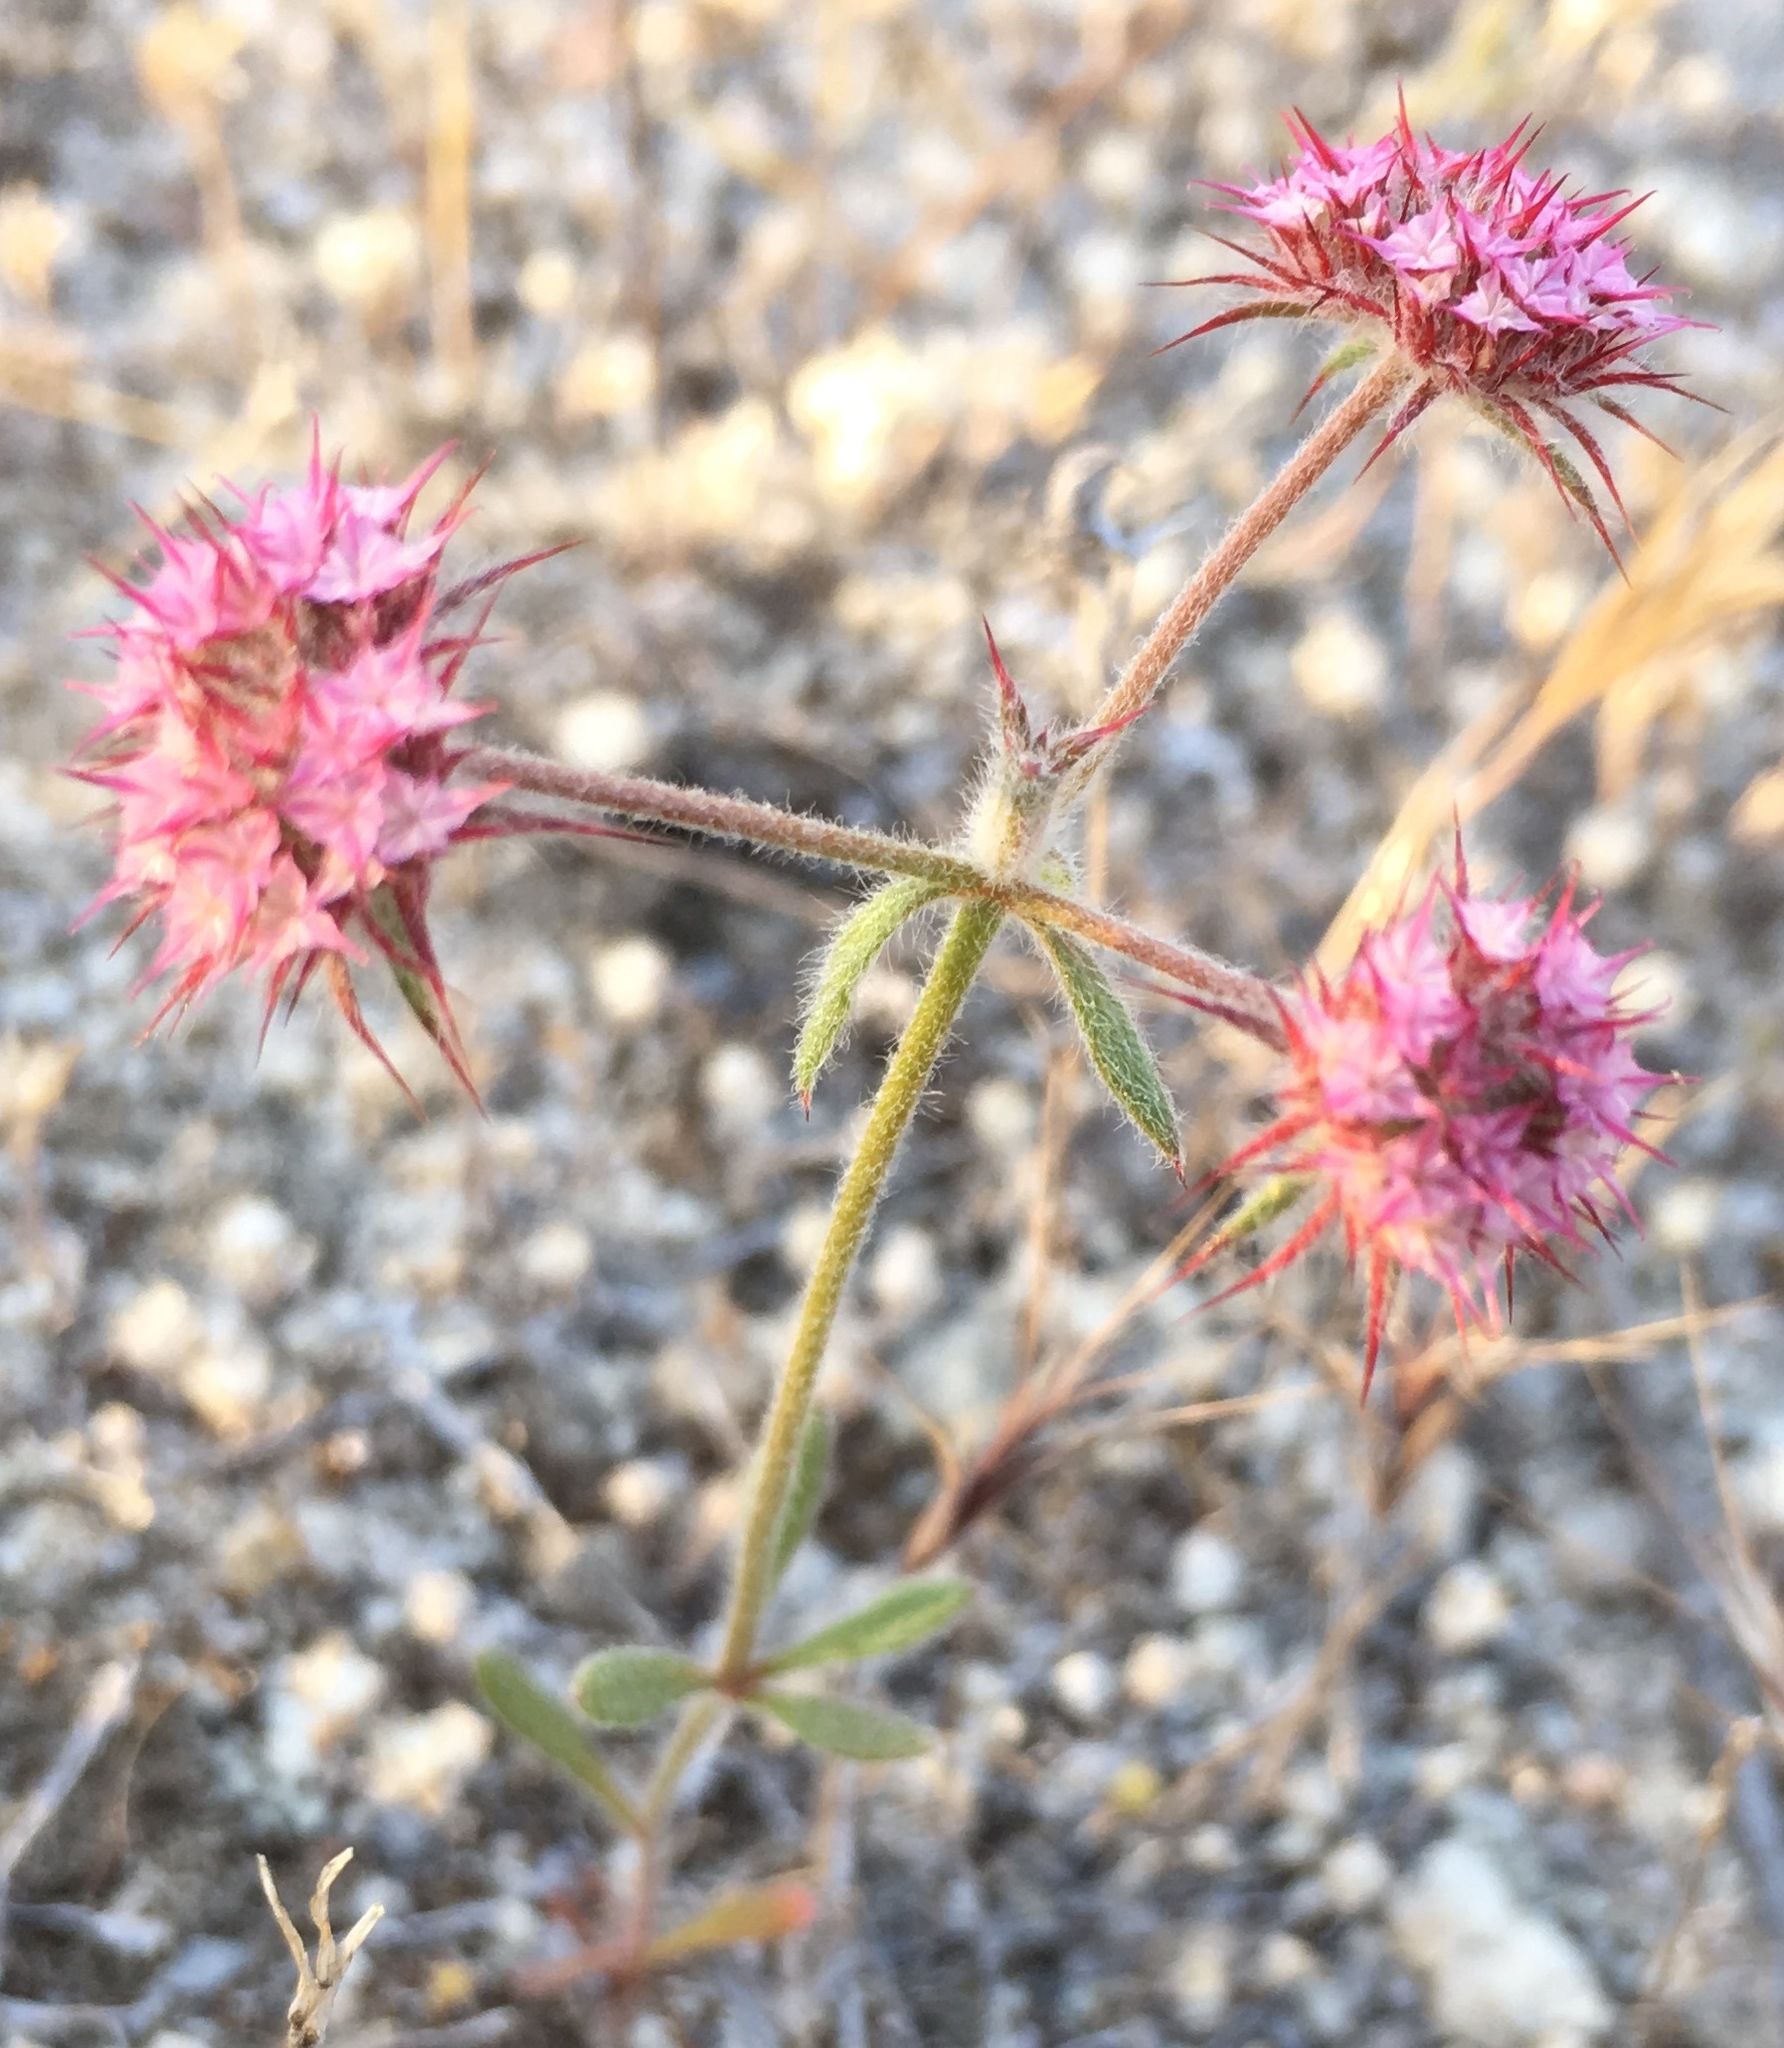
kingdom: Plantae
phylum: Tracheophyta
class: Magnoliopsida
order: Caryophyllales
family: Polygonaceae
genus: Chorizanthe
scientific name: Chorizanthe douglasii
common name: Douglas's spineflower
